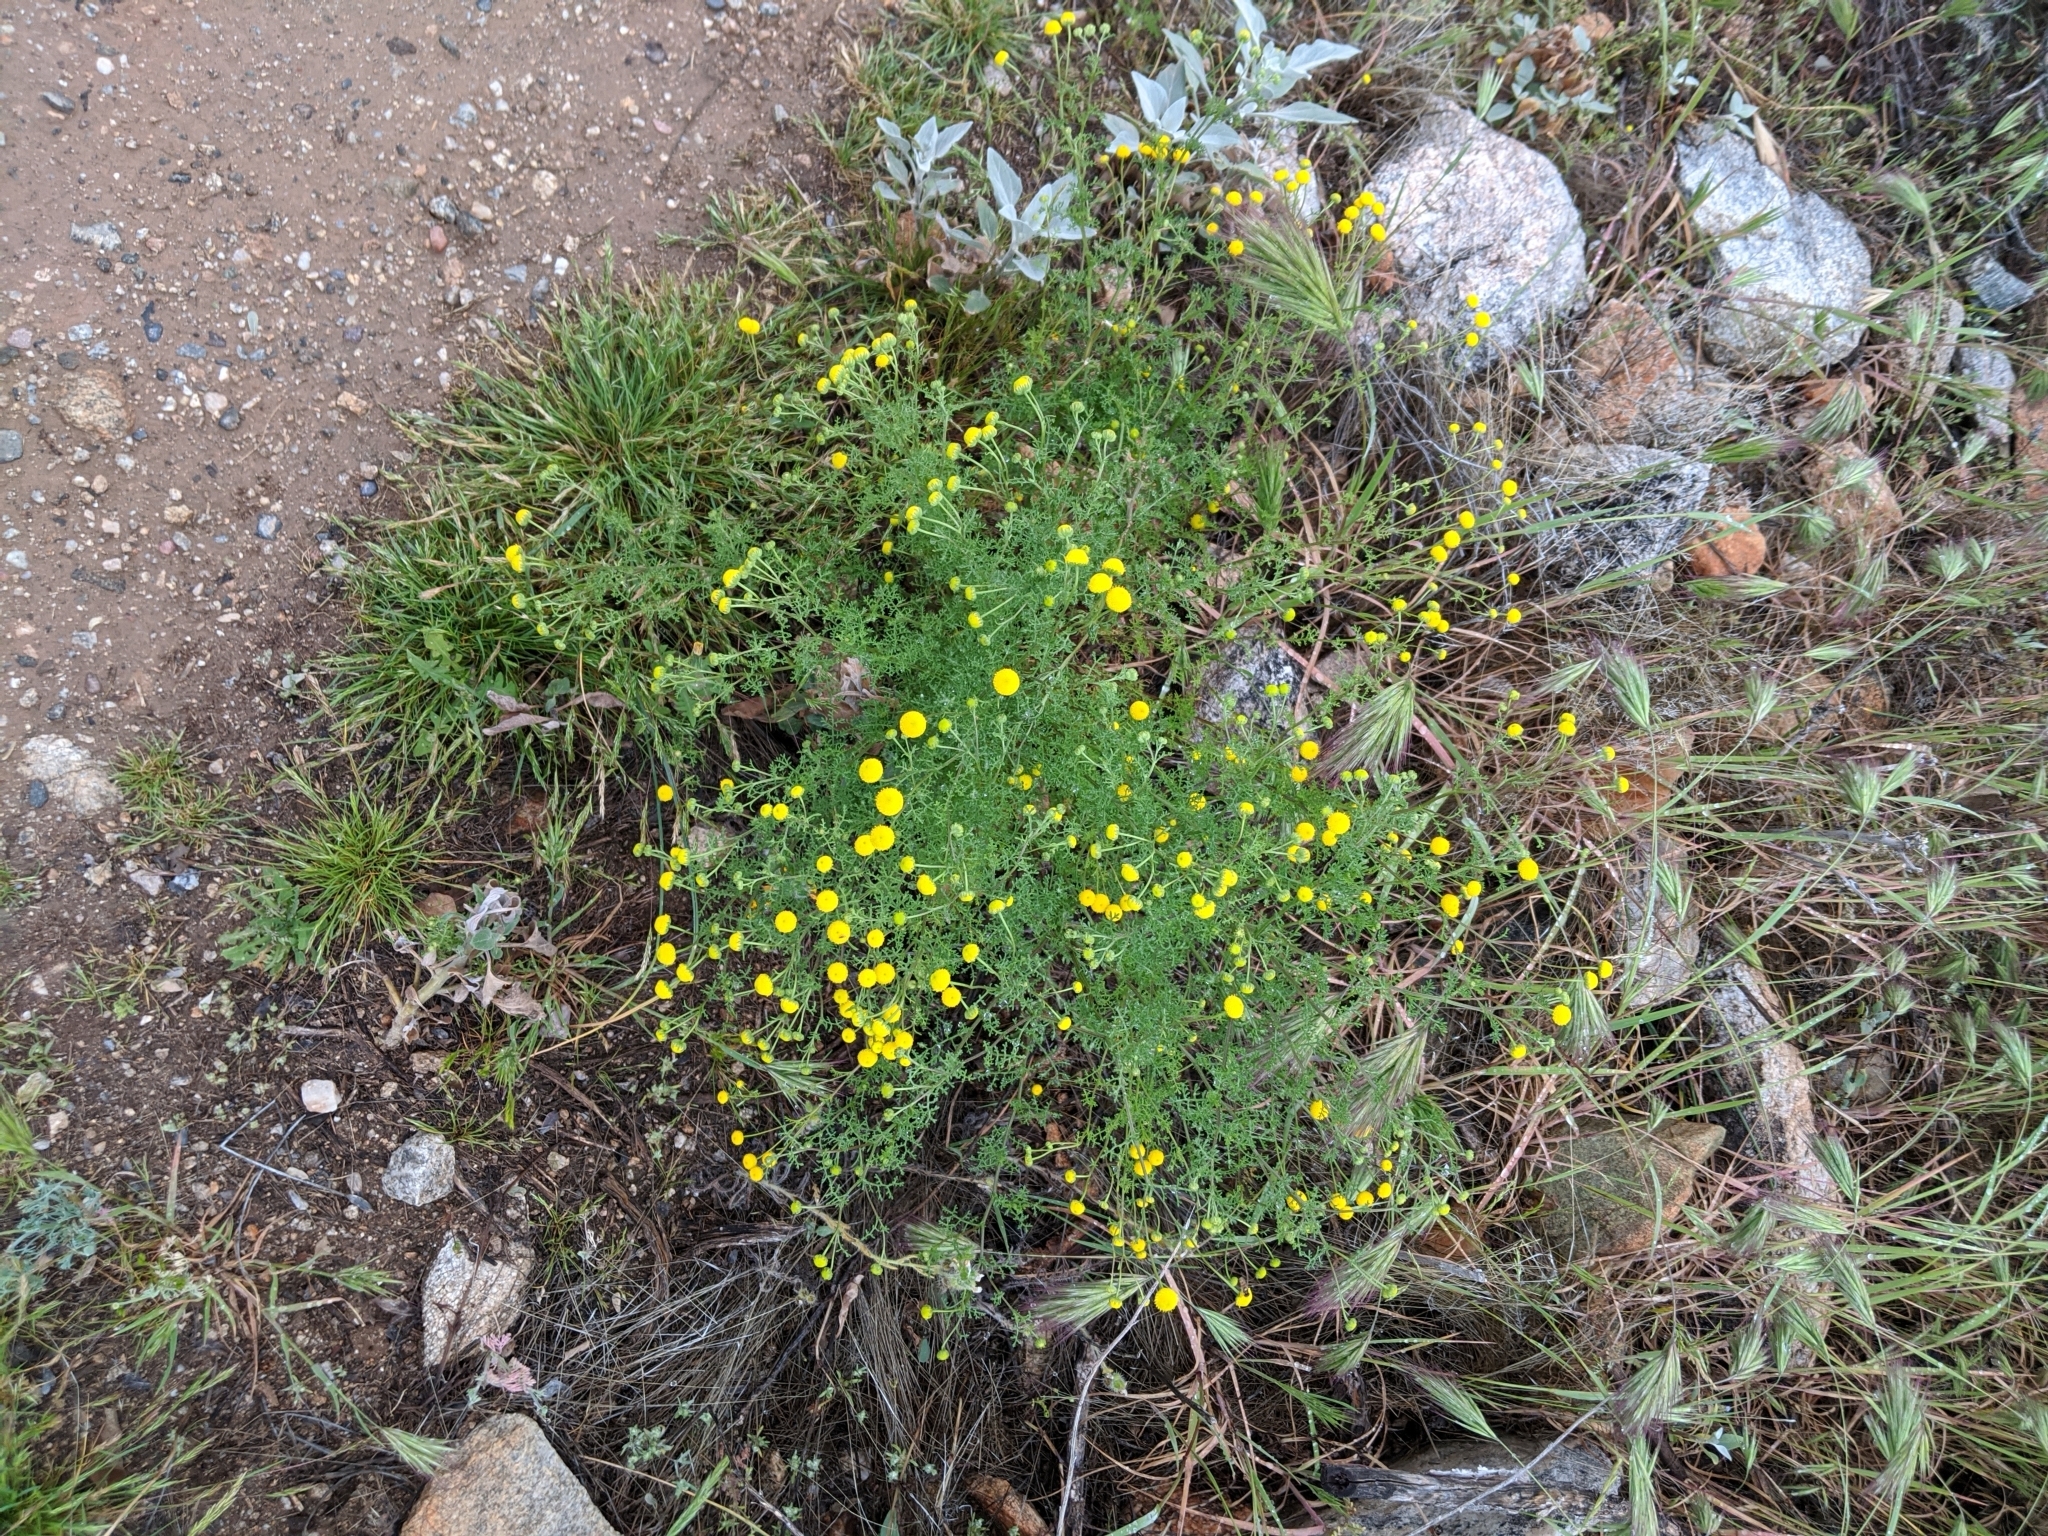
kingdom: Plantae
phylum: Tracheophyta
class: Magnoliopsida
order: Asterales
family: Asteraceae
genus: Oncosiphon
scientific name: Oncosiphon pilulifer
